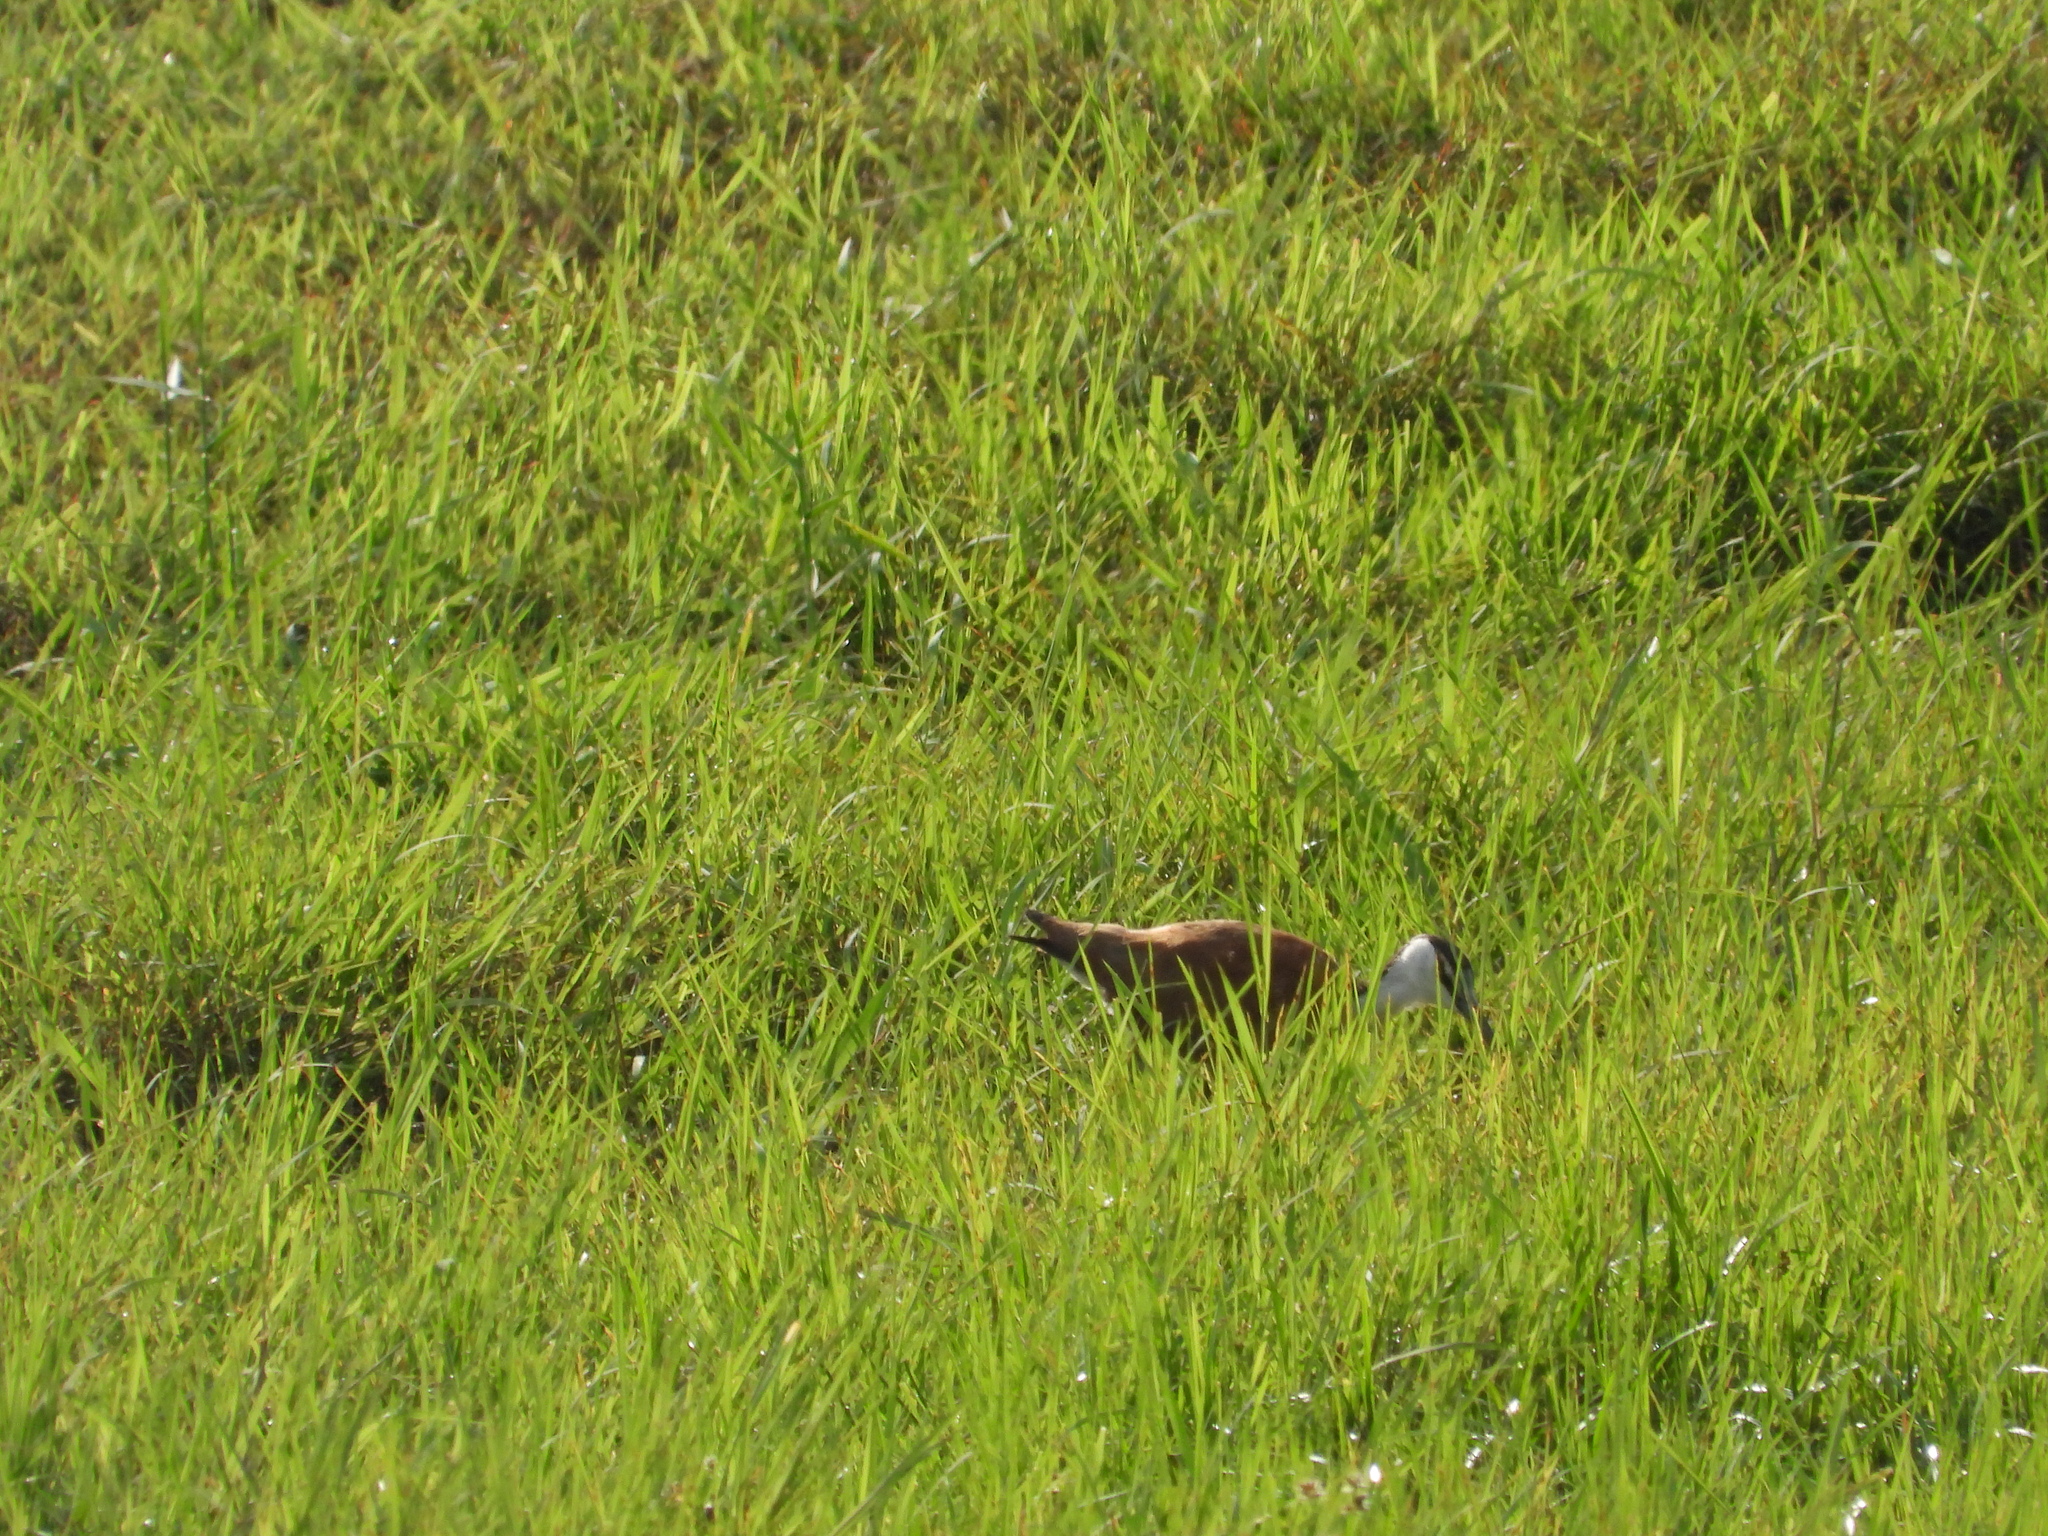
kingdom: Animalia
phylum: Chordata
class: Aves
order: Charadriiformes
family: Jacanidae
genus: Actophilornis
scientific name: Actophilornis africanus
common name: African jacana
